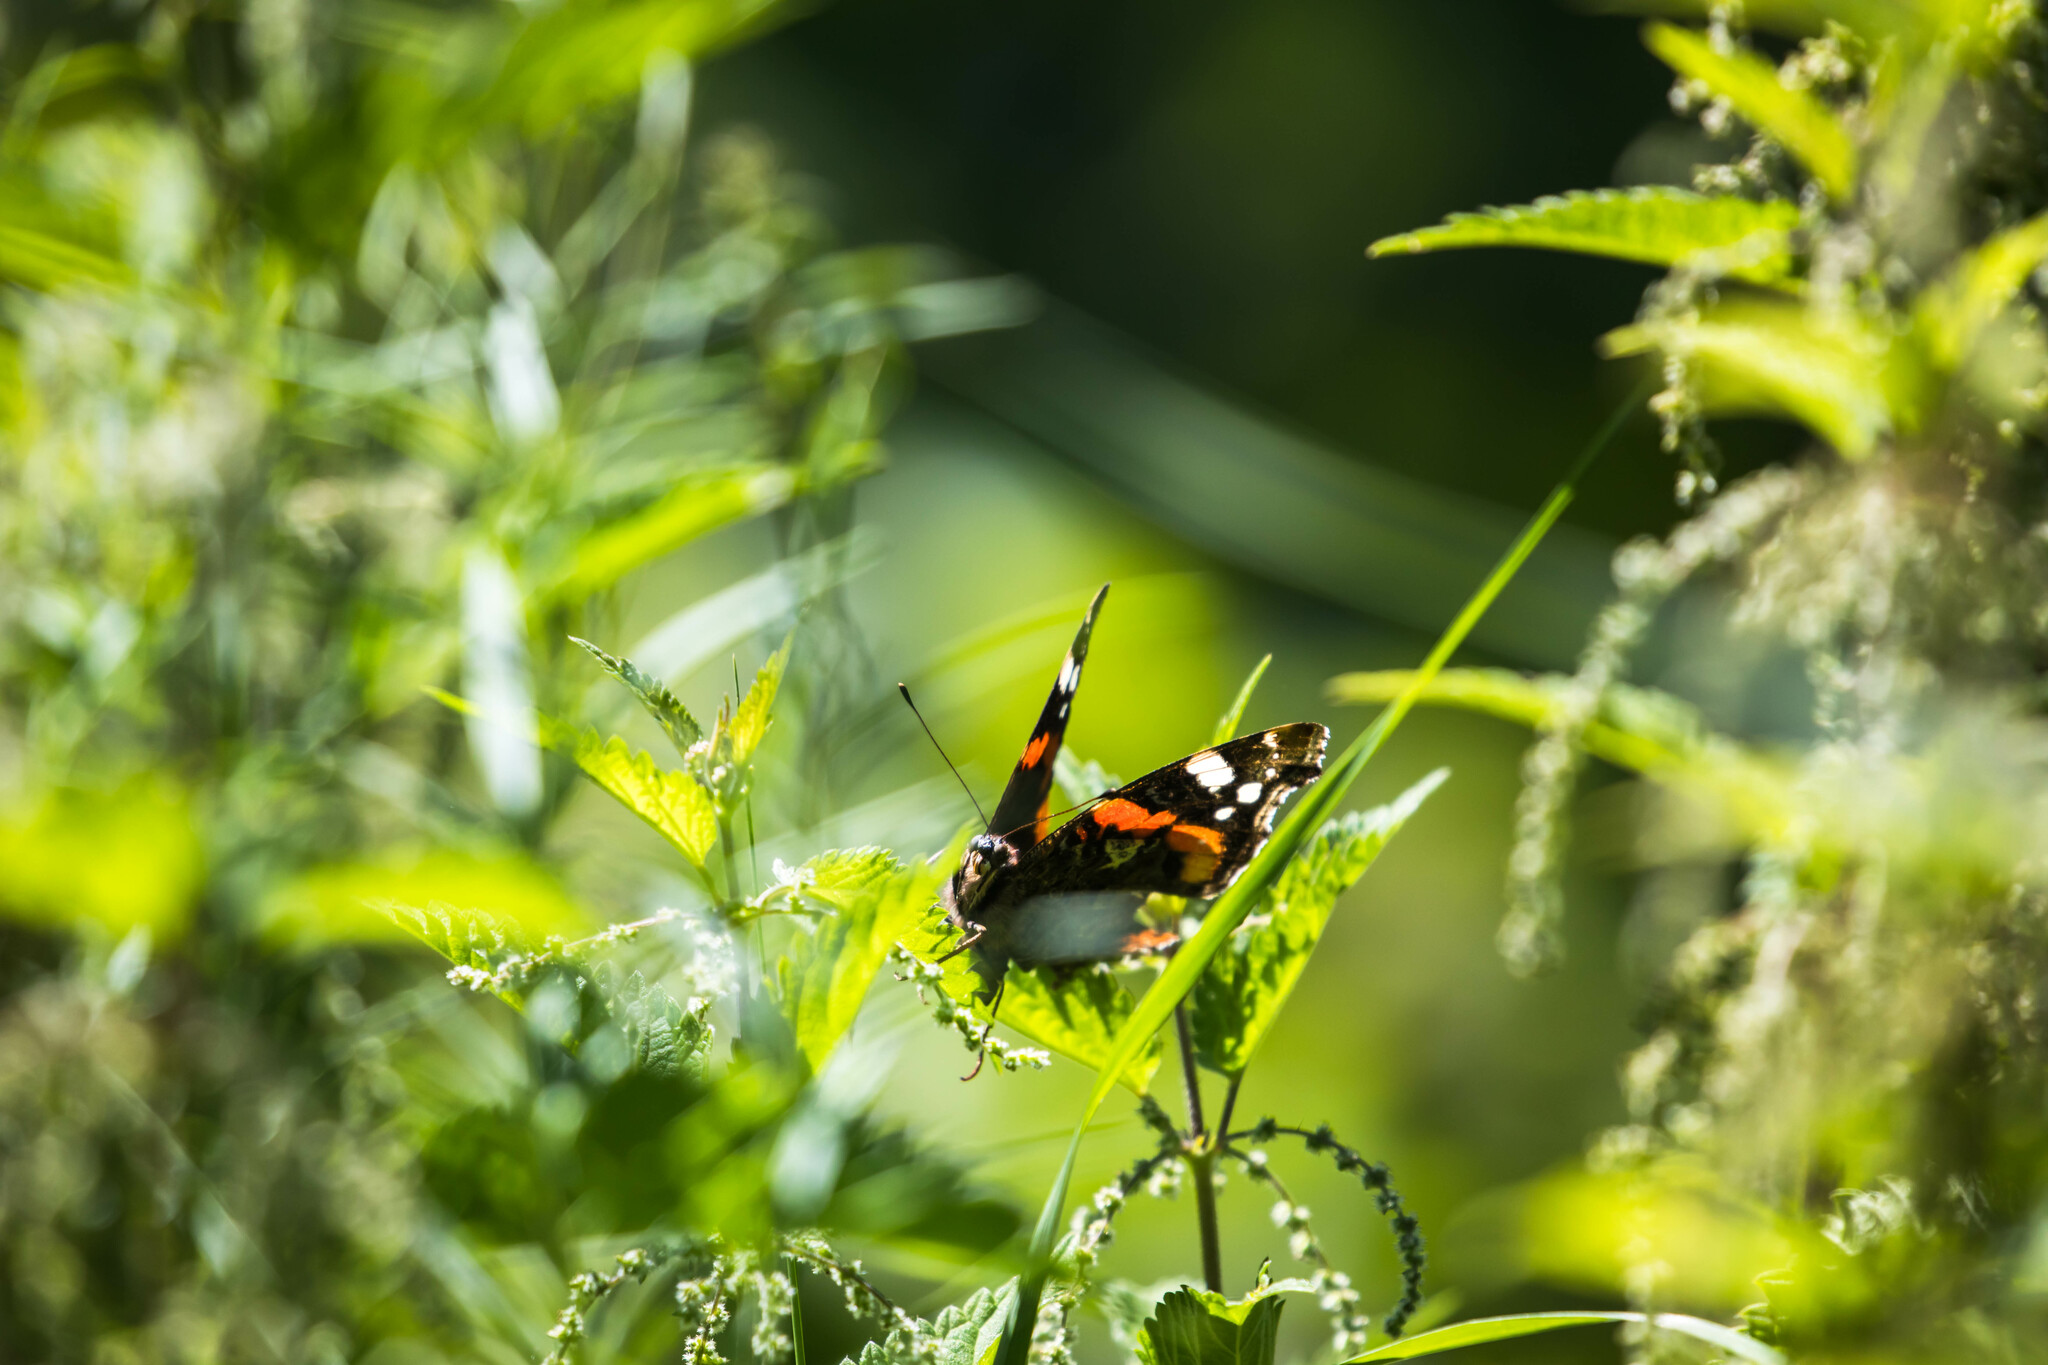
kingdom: Animalia
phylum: Arthropoda
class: Insecta
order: Lepidoptera
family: Nymphalidae
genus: Vanessa
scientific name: Vanessa atalanta
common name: Red admiral
